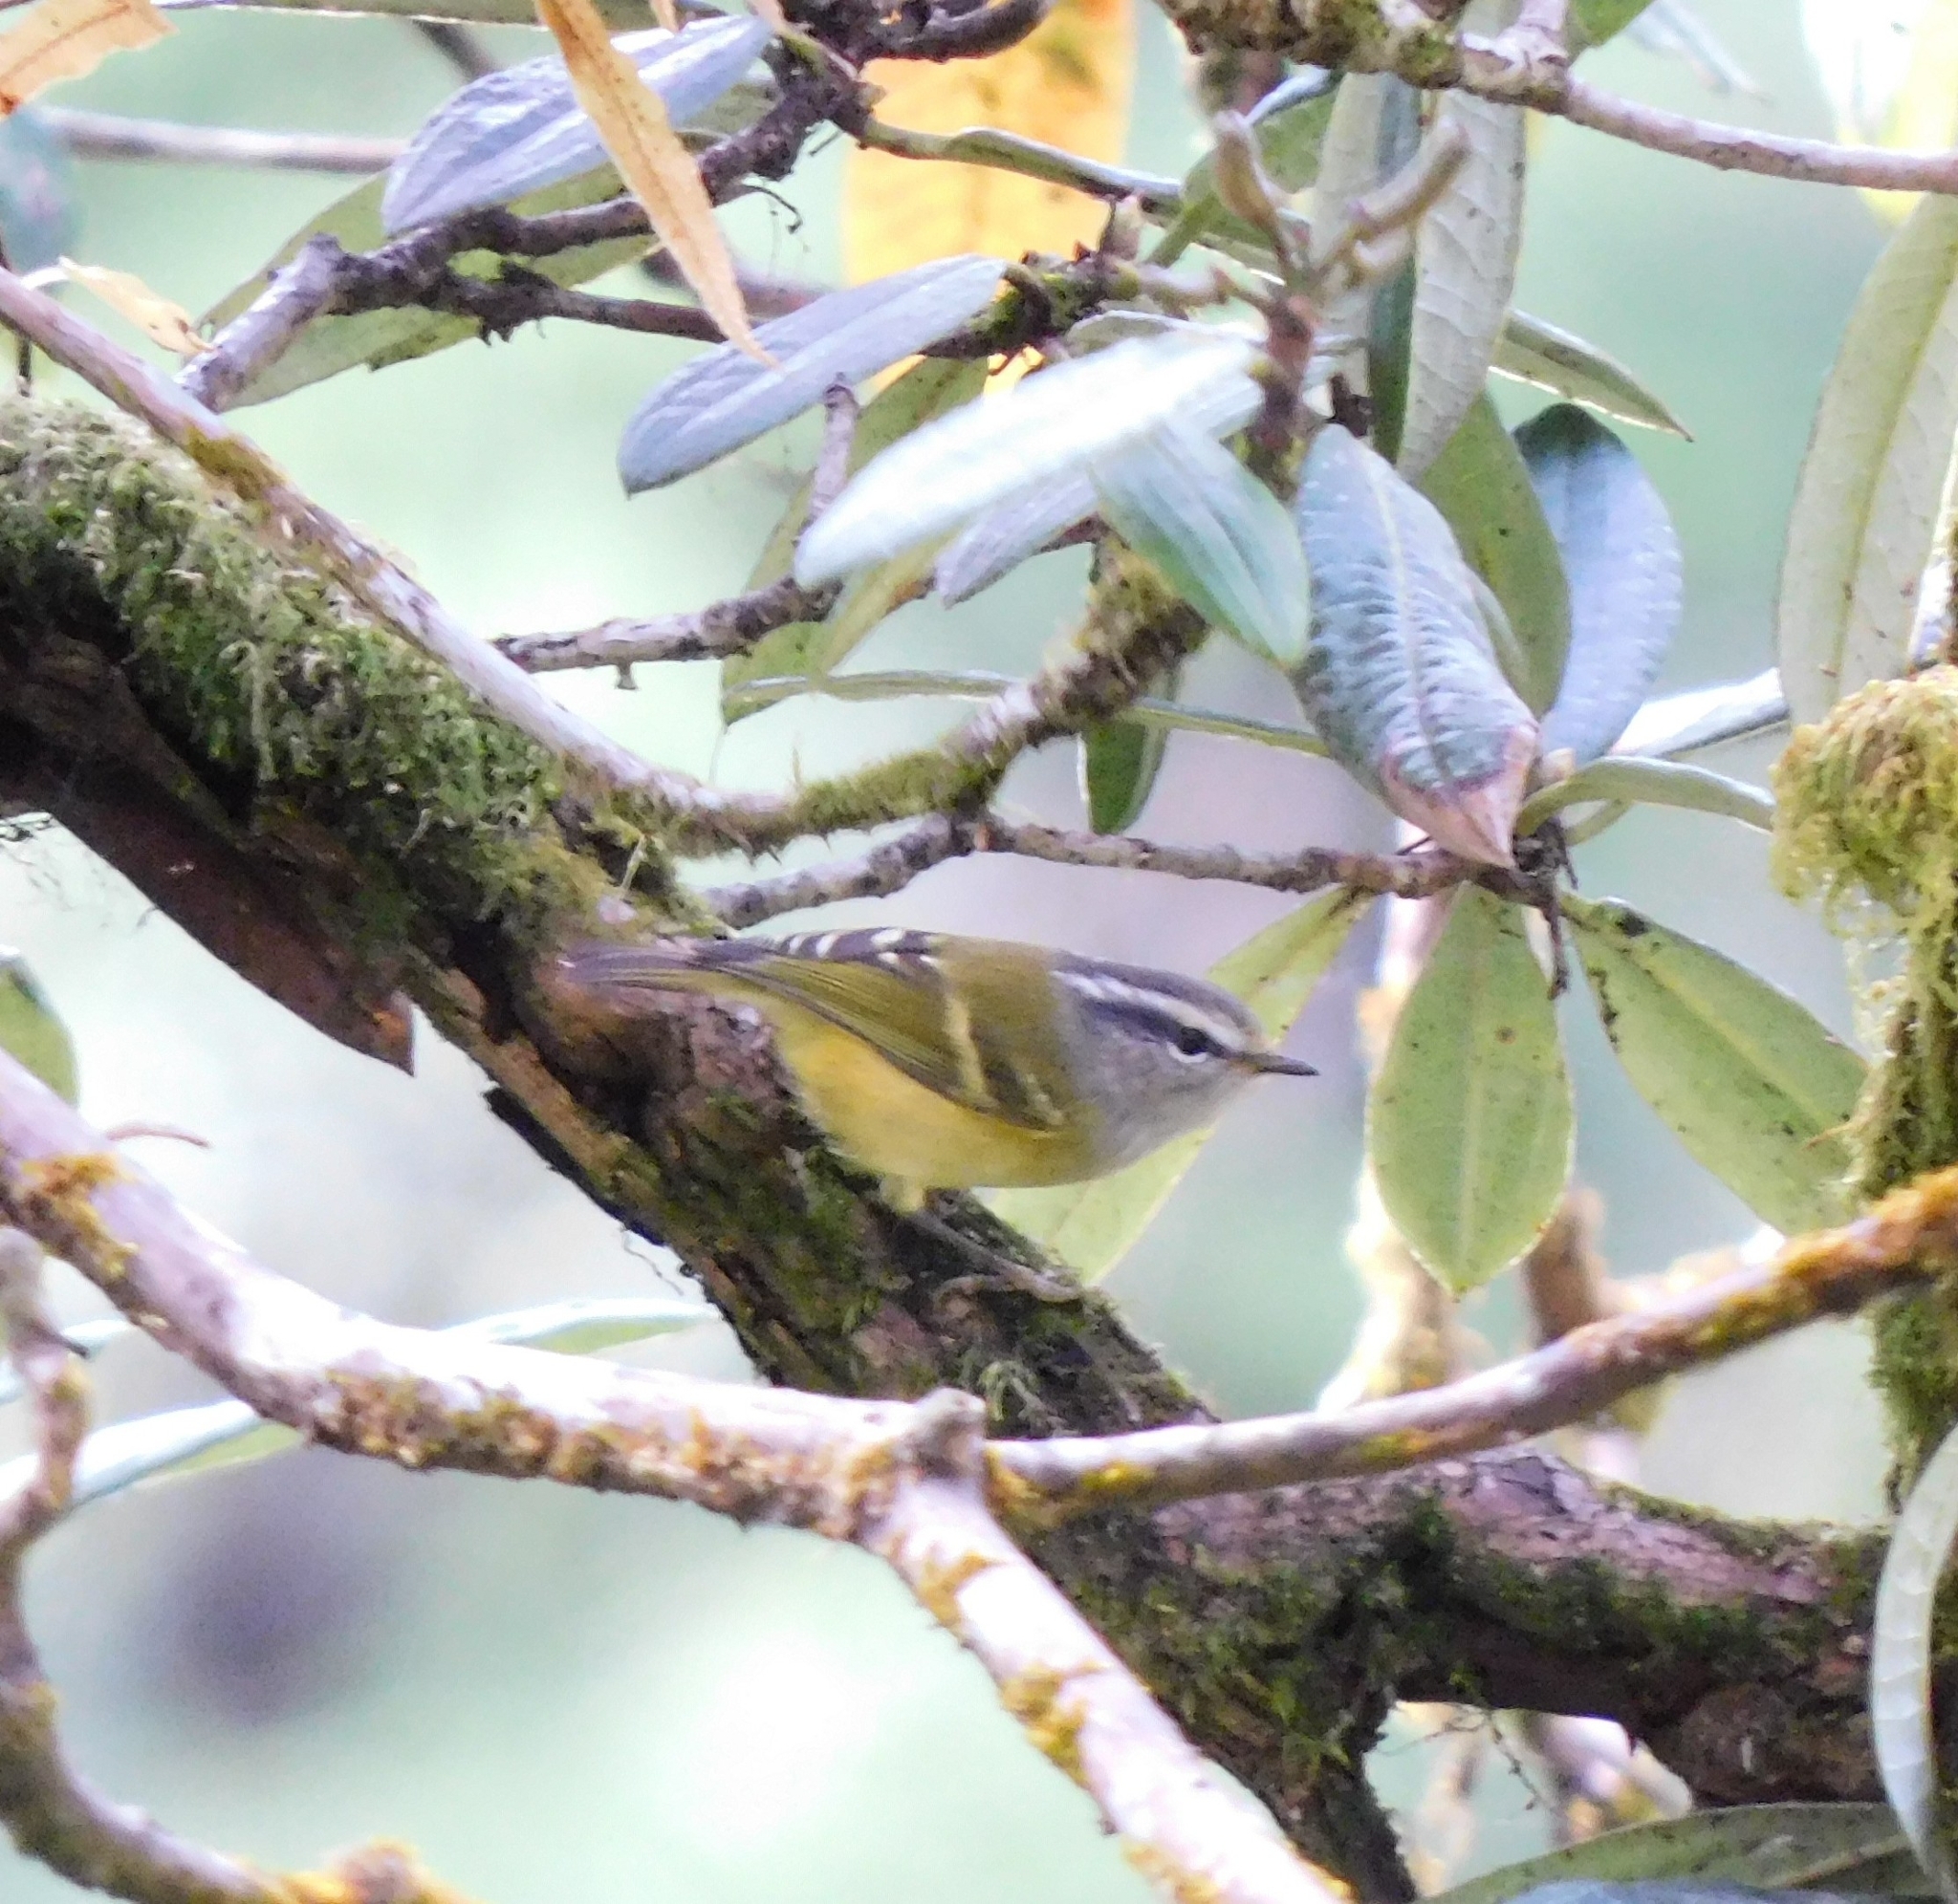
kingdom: Animalia
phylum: Chordata
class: Aves
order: Passeriformes
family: Phylloscopidae
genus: Phylloscopus
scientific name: Phylloscopus maculipennis
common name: Ashy-throated warbler
